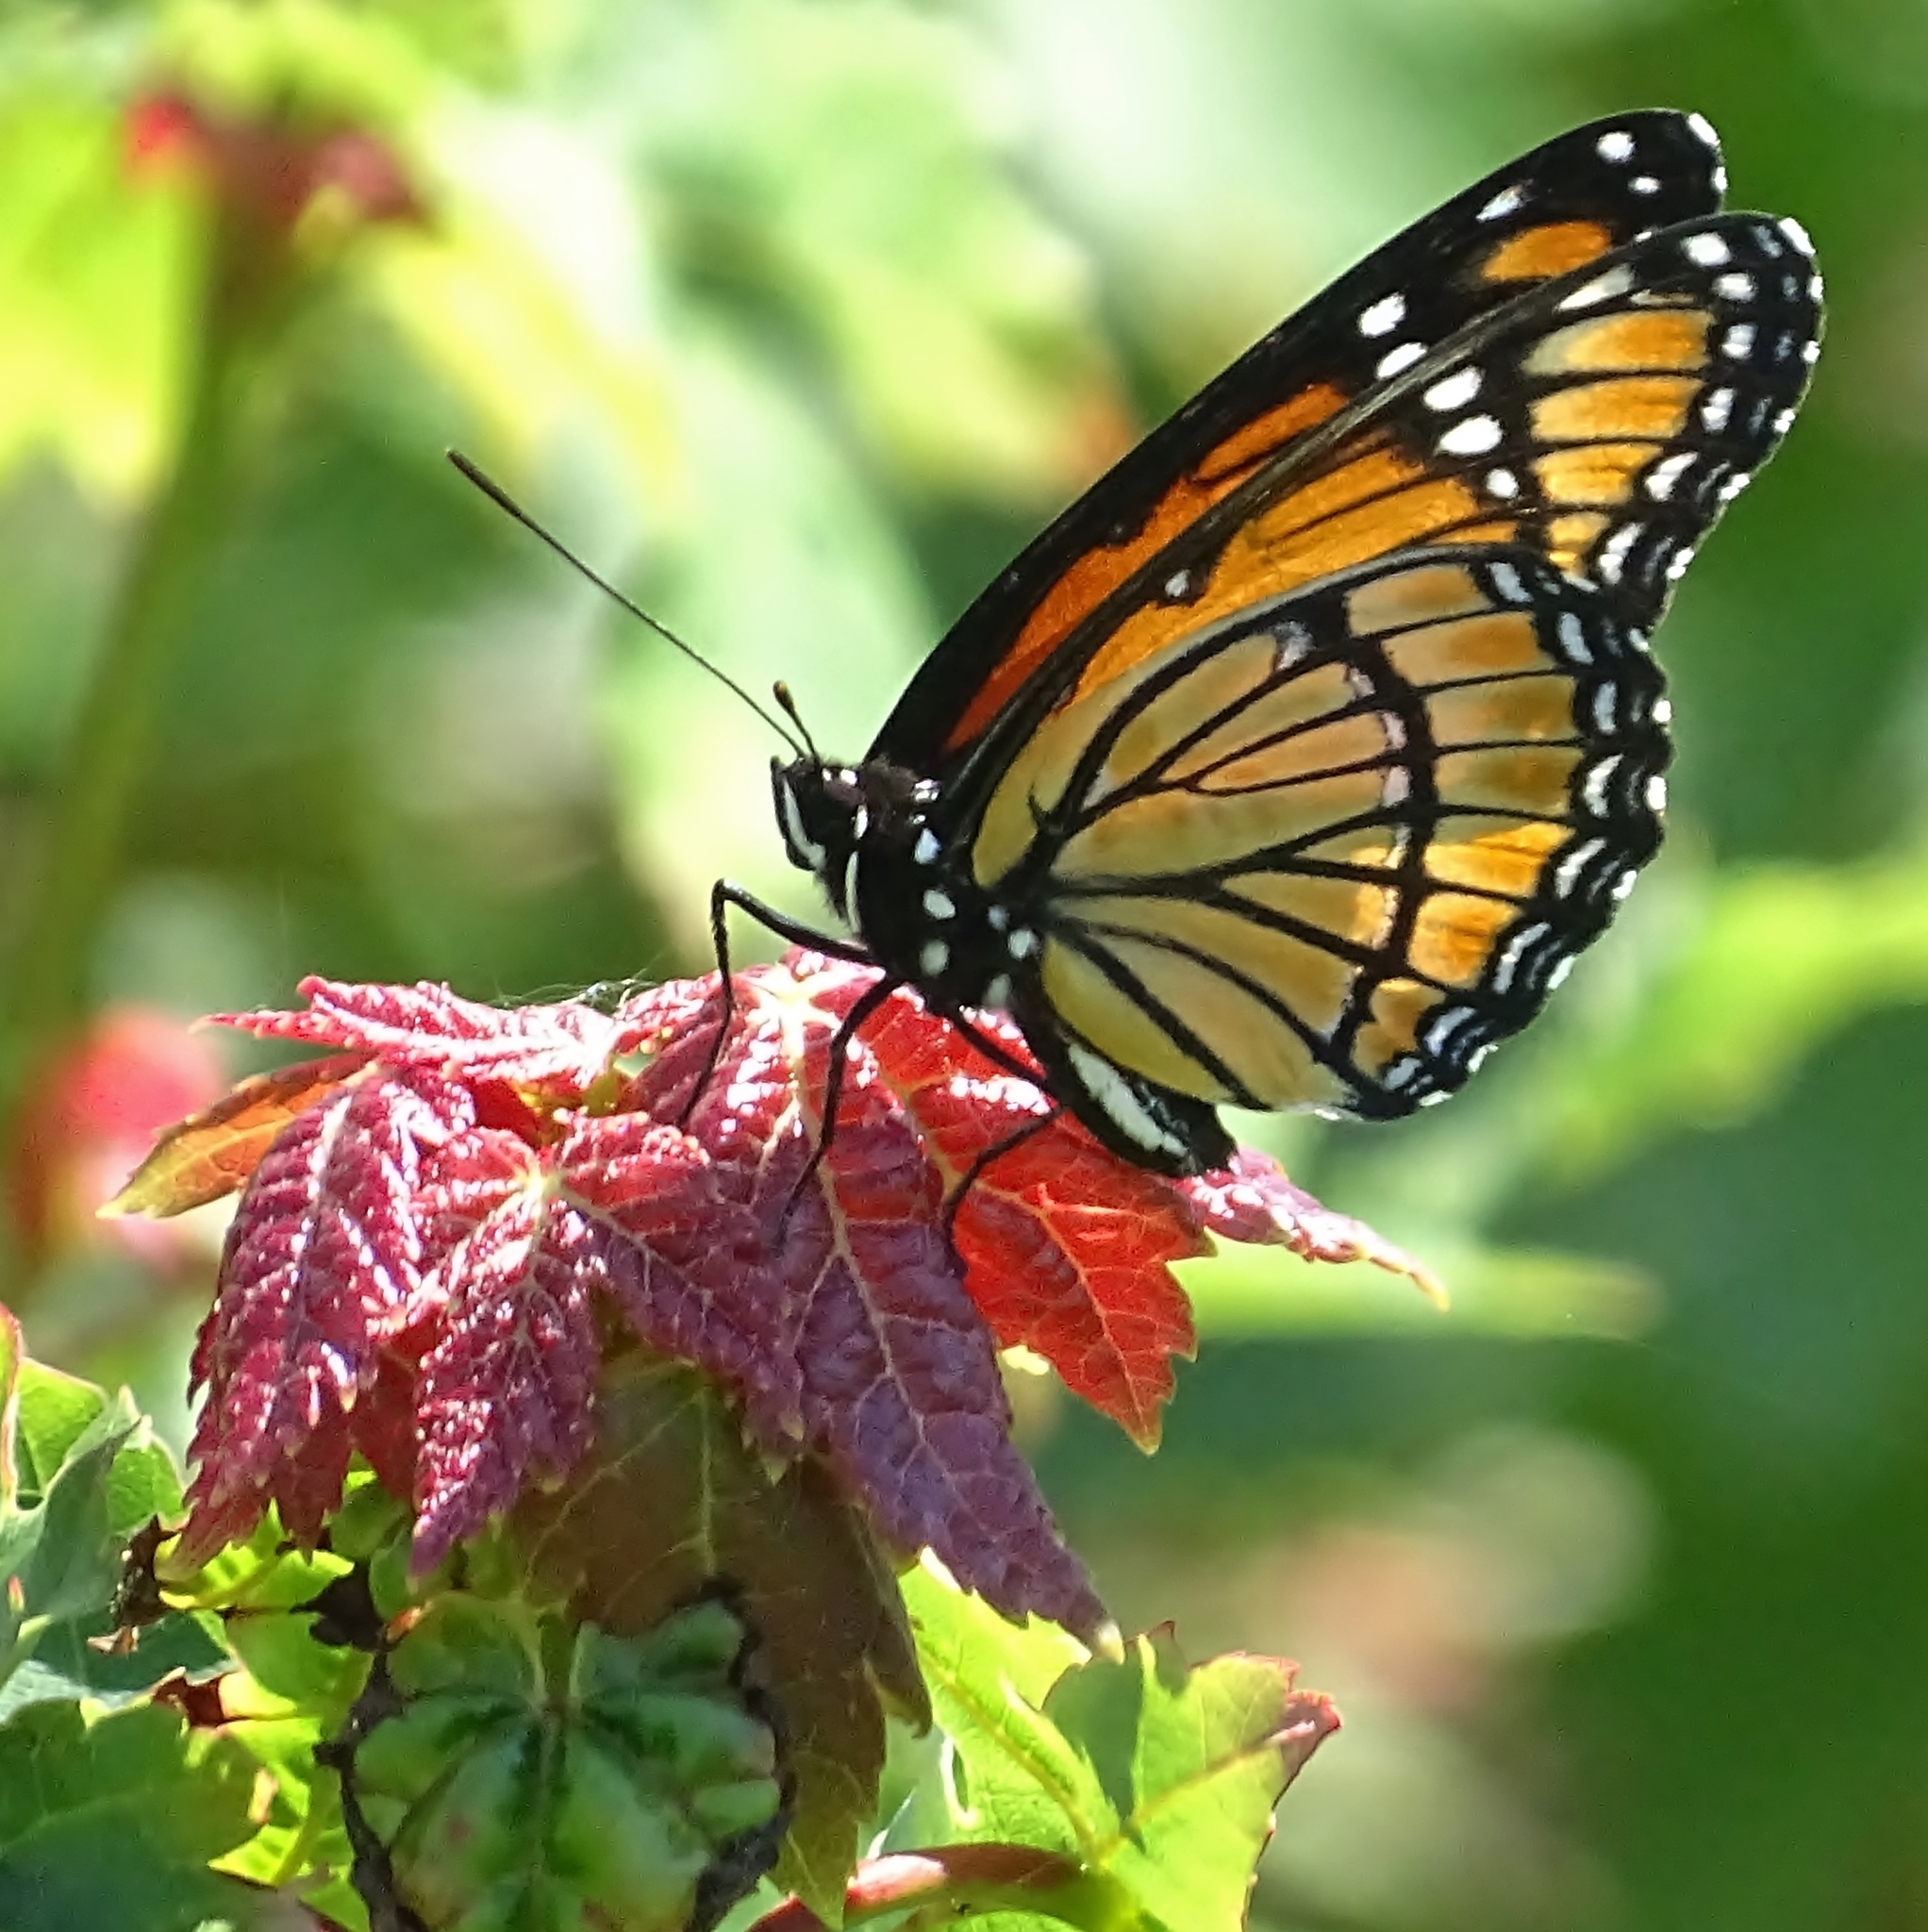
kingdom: Animalia
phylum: Arthropoda
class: Insecta
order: Lepidoptera
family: Nymphalidae
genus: Limenitis
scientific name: Limenitis archippus
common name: Viceroy
